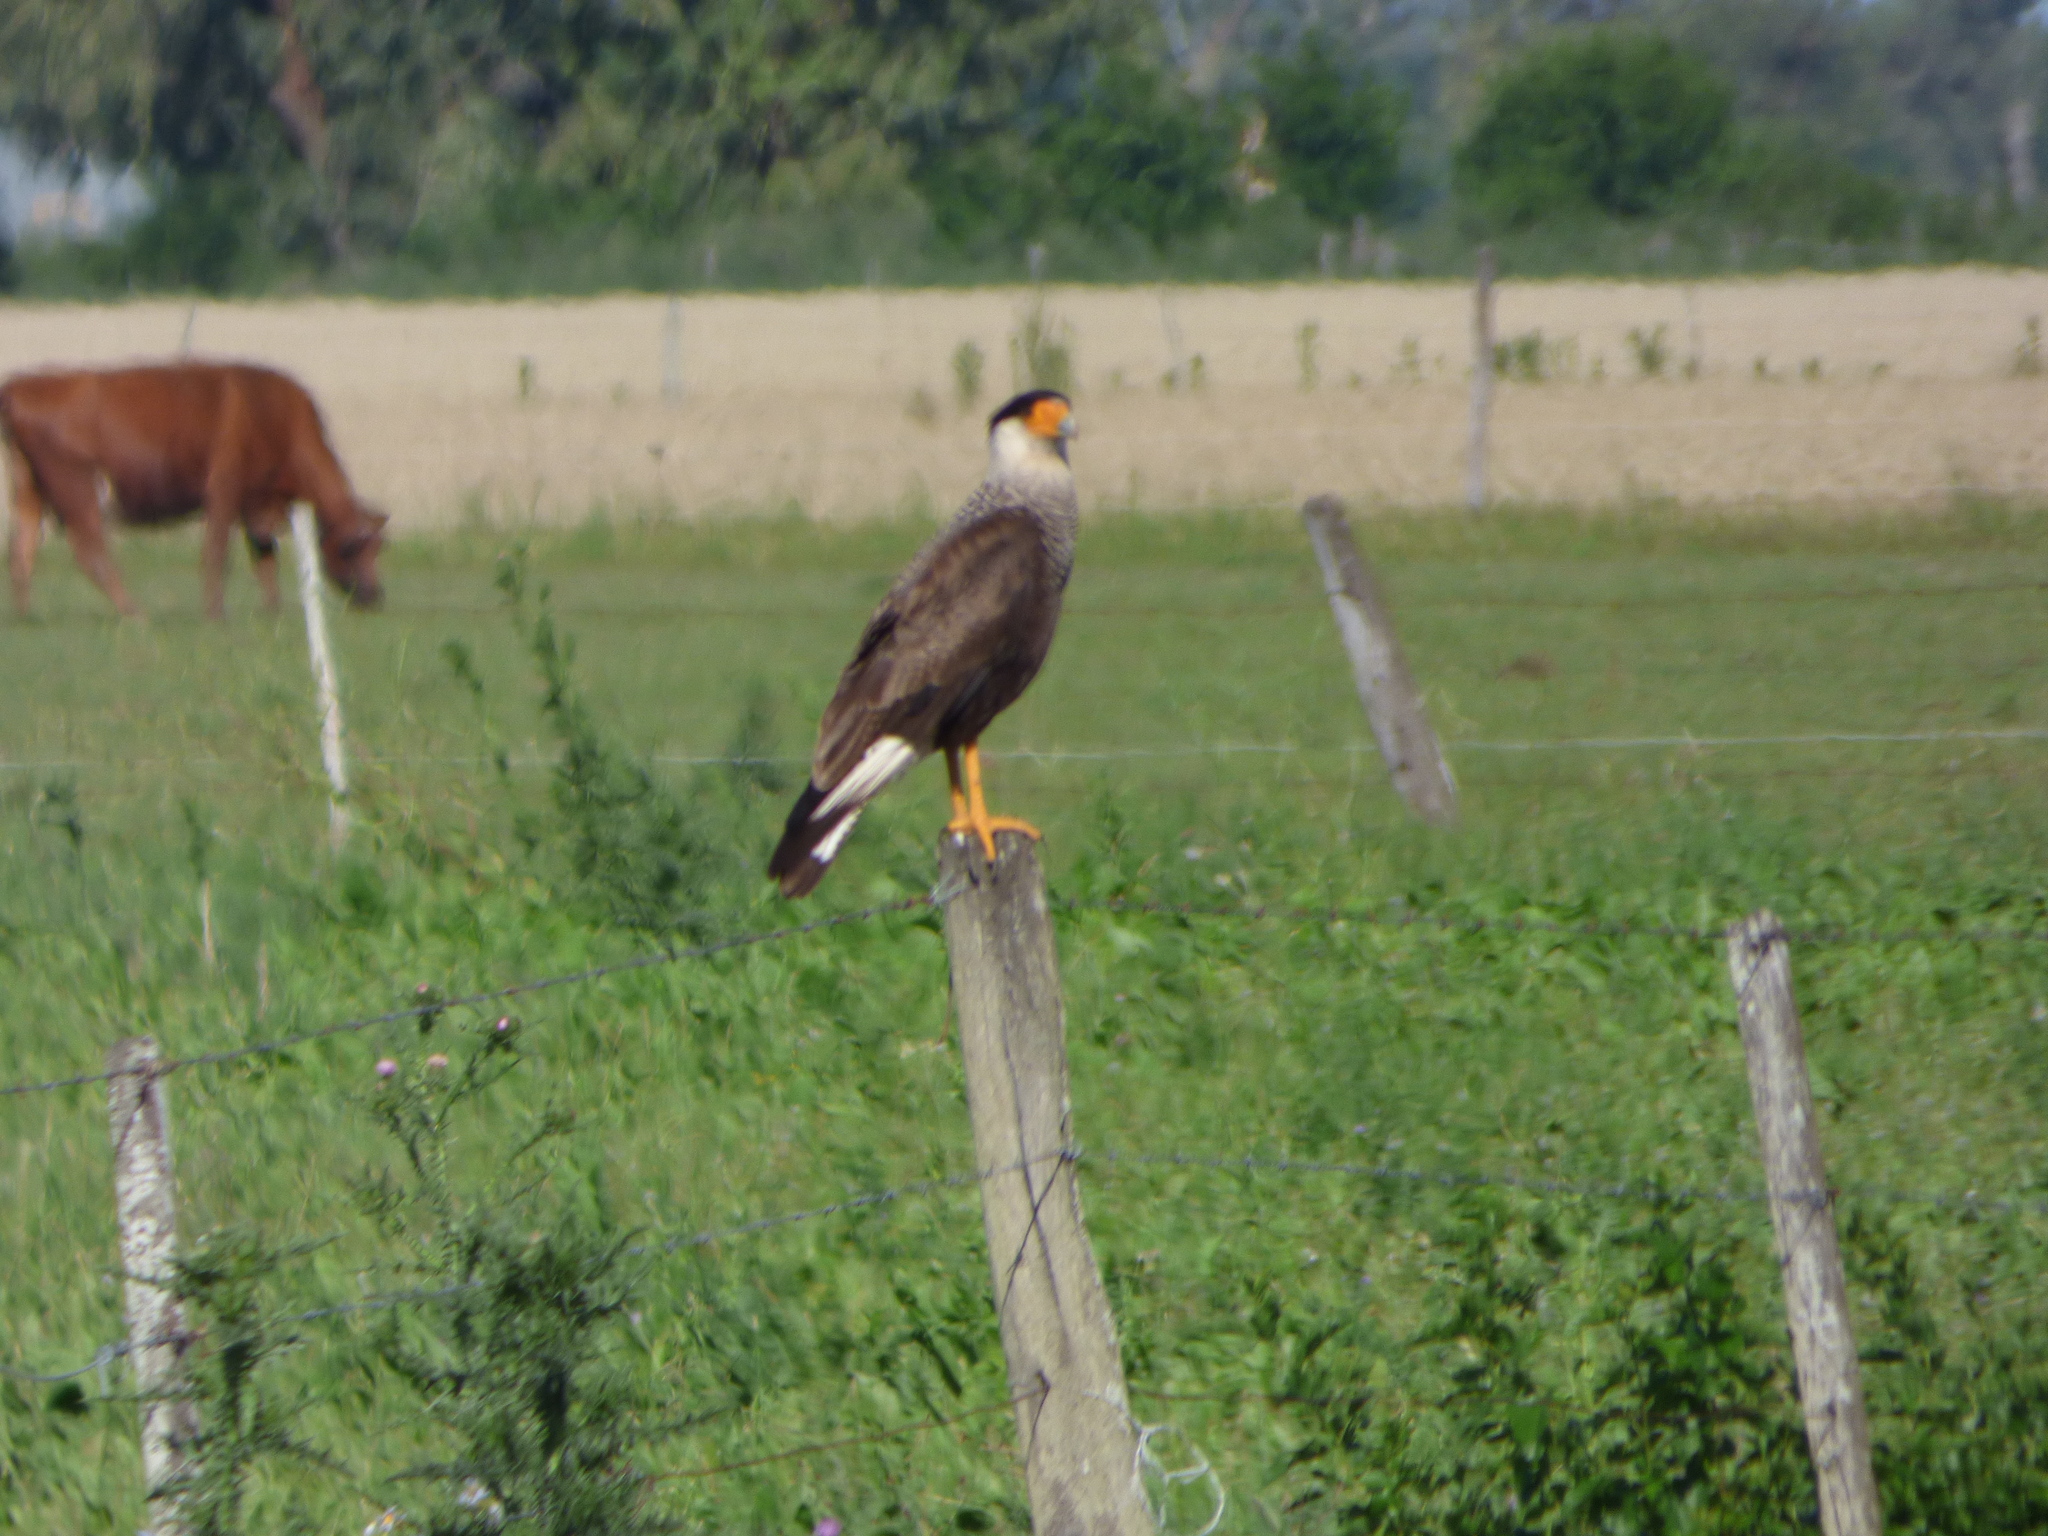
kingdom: Animalia
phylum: Chordata
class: Aves
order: Falconiformes
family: Falconidae
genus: Caracara
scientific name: Caracara plancus
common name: Southern caracara
